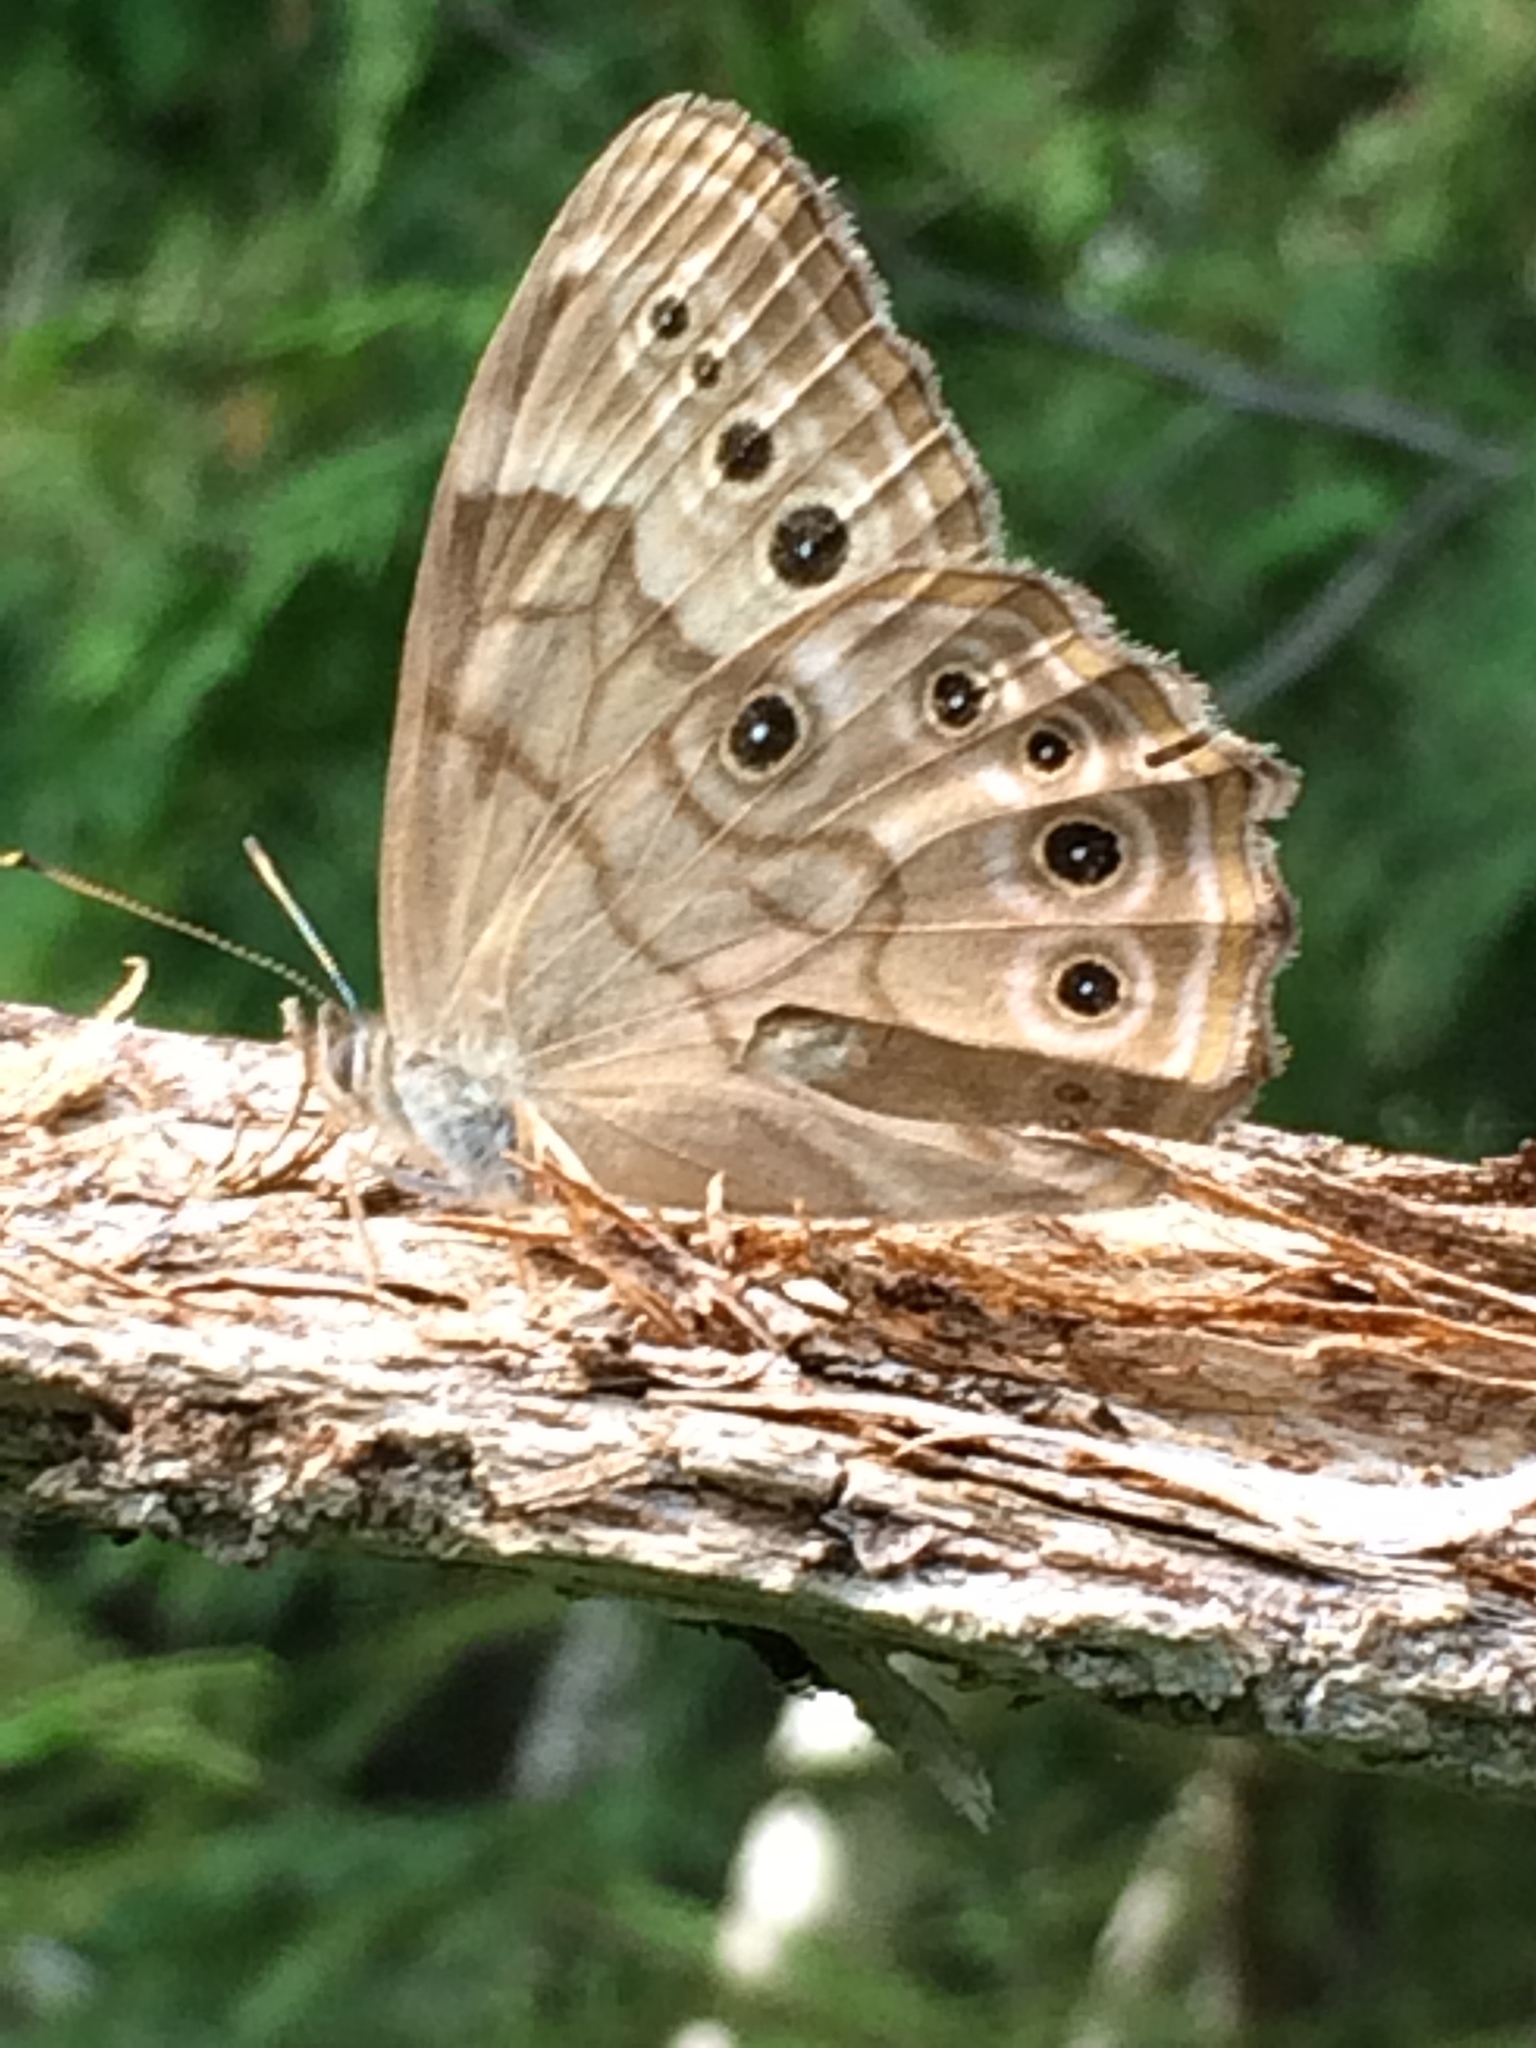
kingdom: Animalia
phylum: Arthropoda
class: Insecta
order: Lepidoptera
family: Nymphalidae
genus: Lethe
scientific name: Lethe anthedon
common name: Northern pearly-eye
